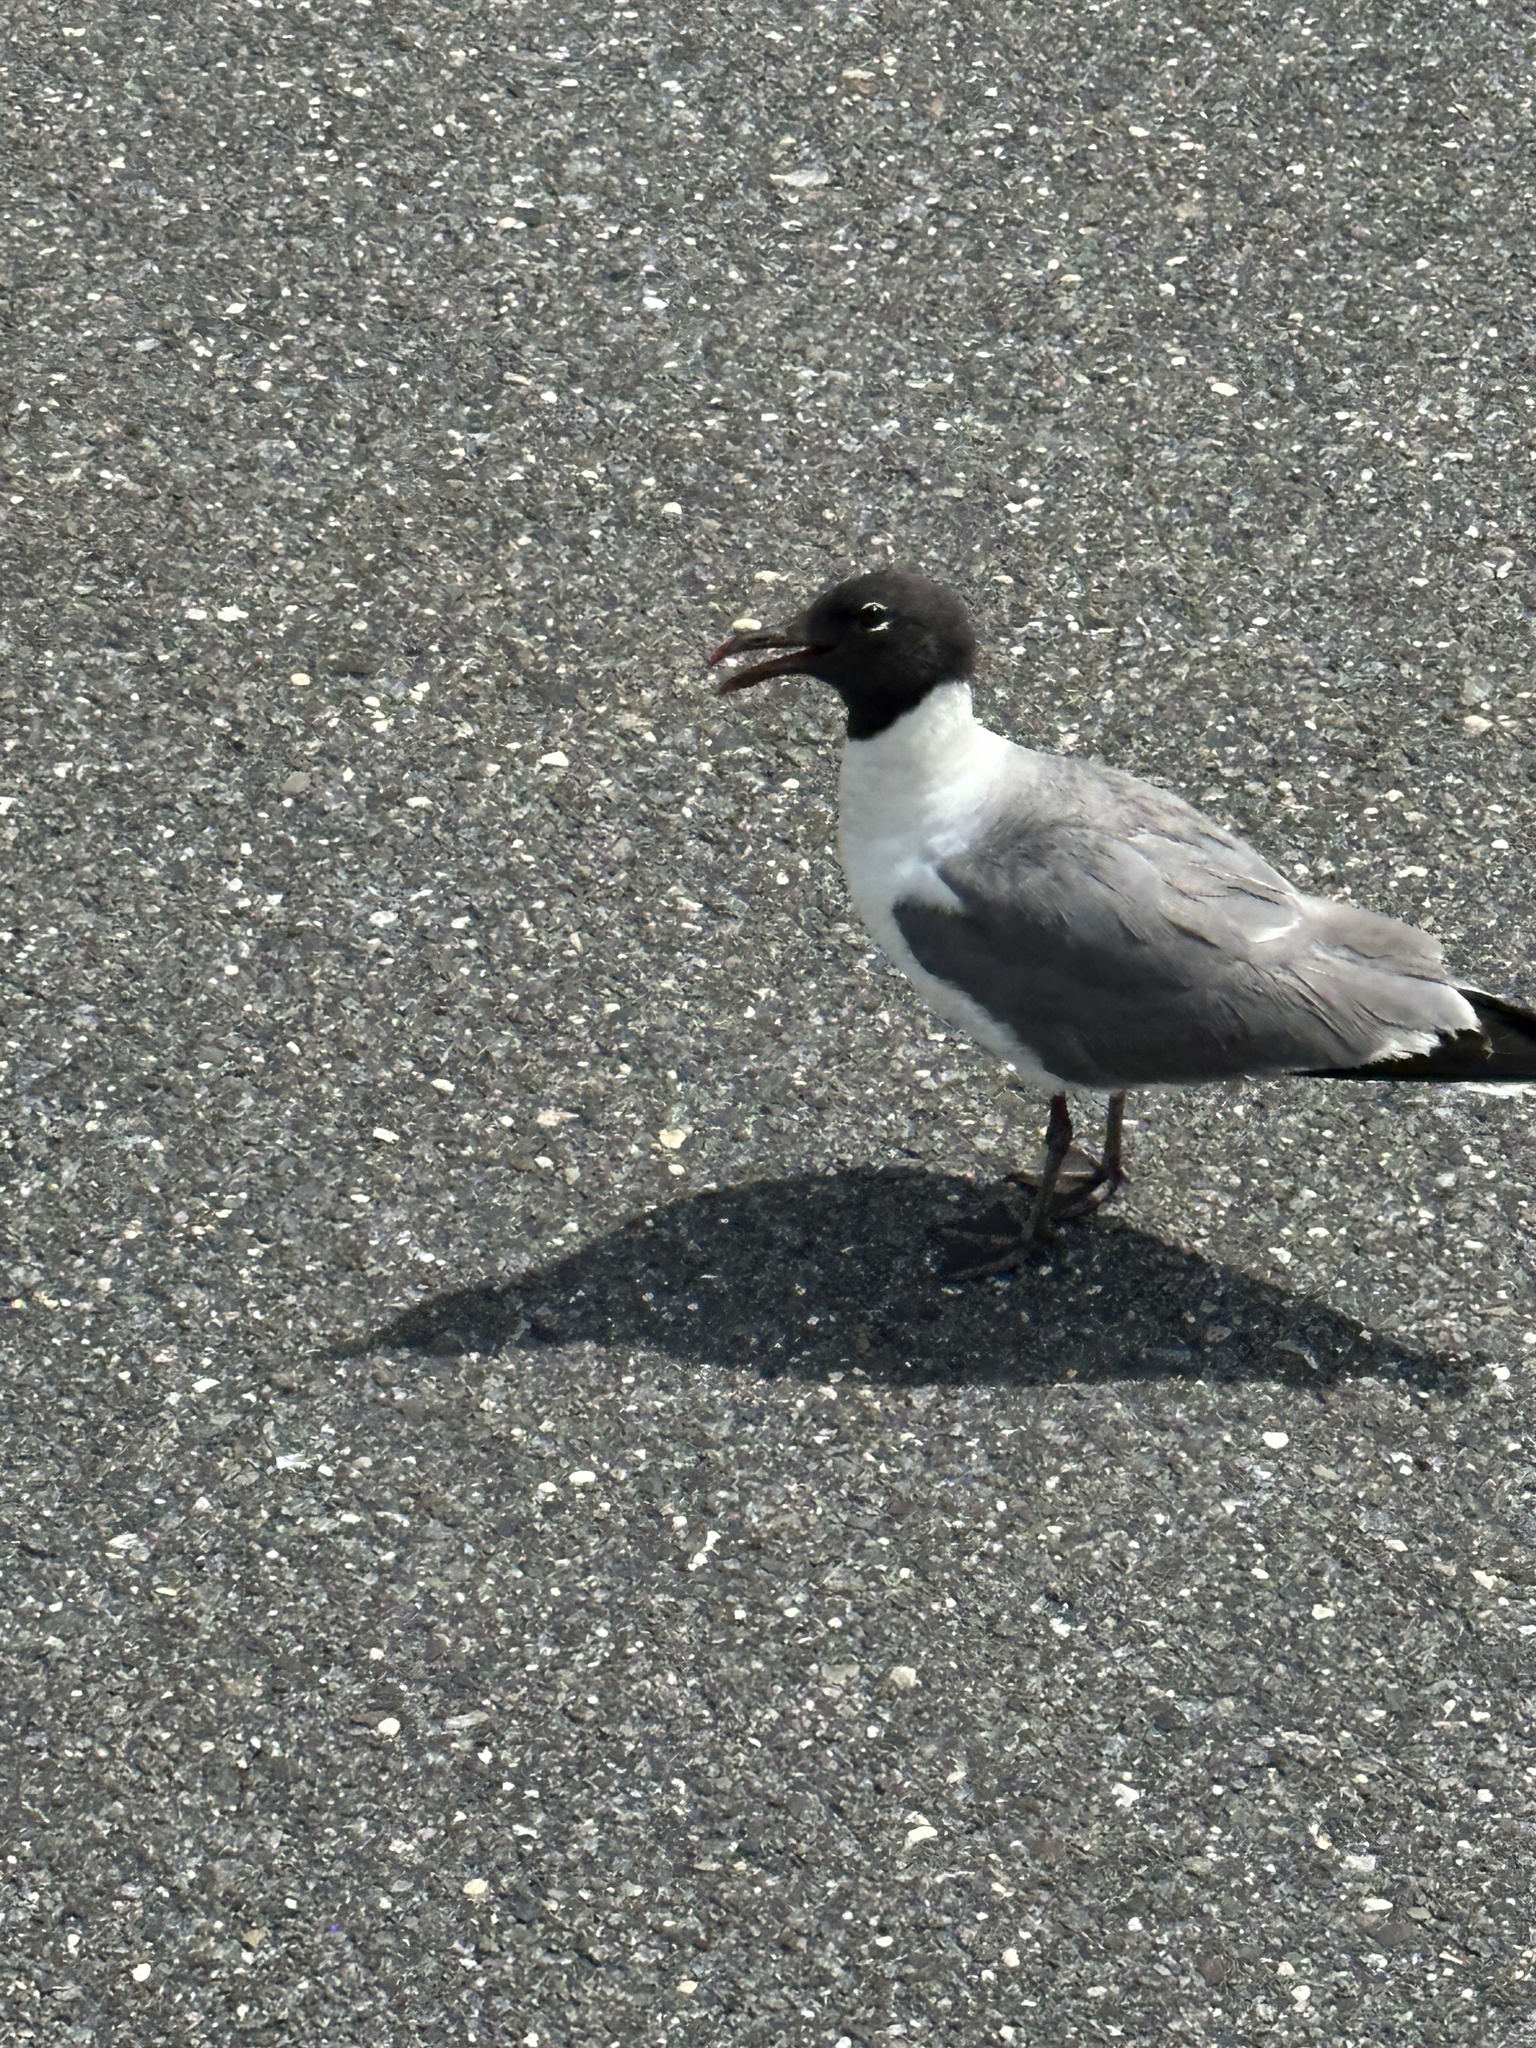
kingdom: Animalia
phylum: Chordata
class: Aves
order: Charadriiformes
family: Laridae
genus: Leucophaeus
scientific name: Leucophaeus atricilla
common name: Laughing gull
